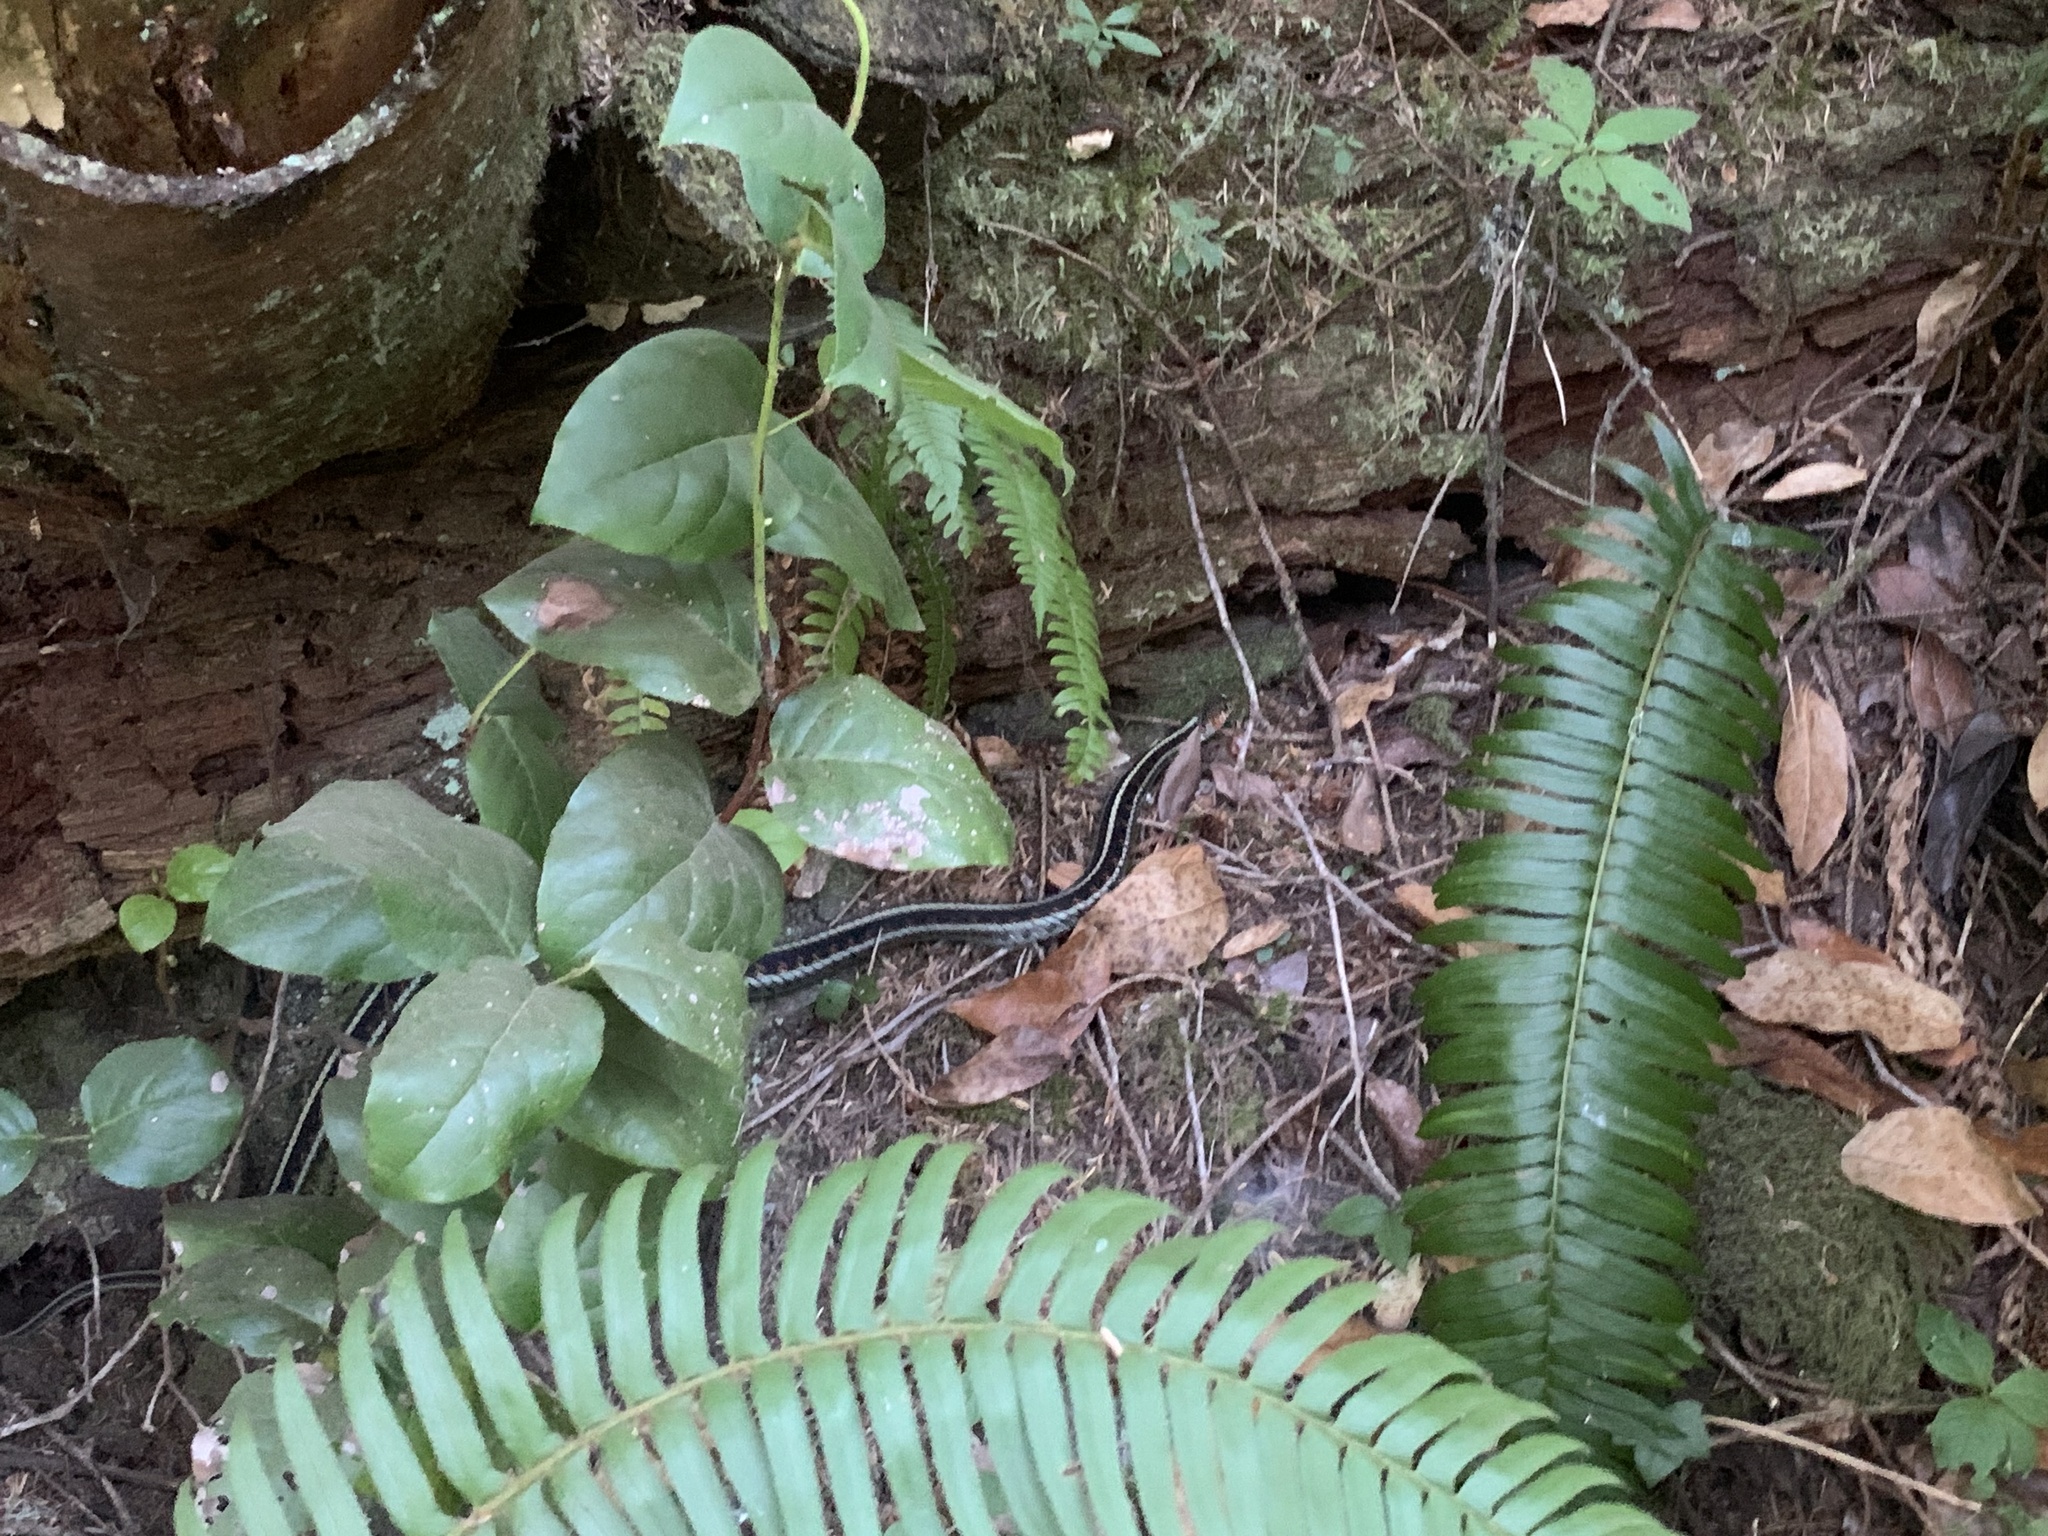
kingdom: Animalia
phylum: Chordata
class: Squamata
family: Colubridae
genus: Thamnophis
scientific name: Thamnophis sirtalis
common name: Common garter snake
